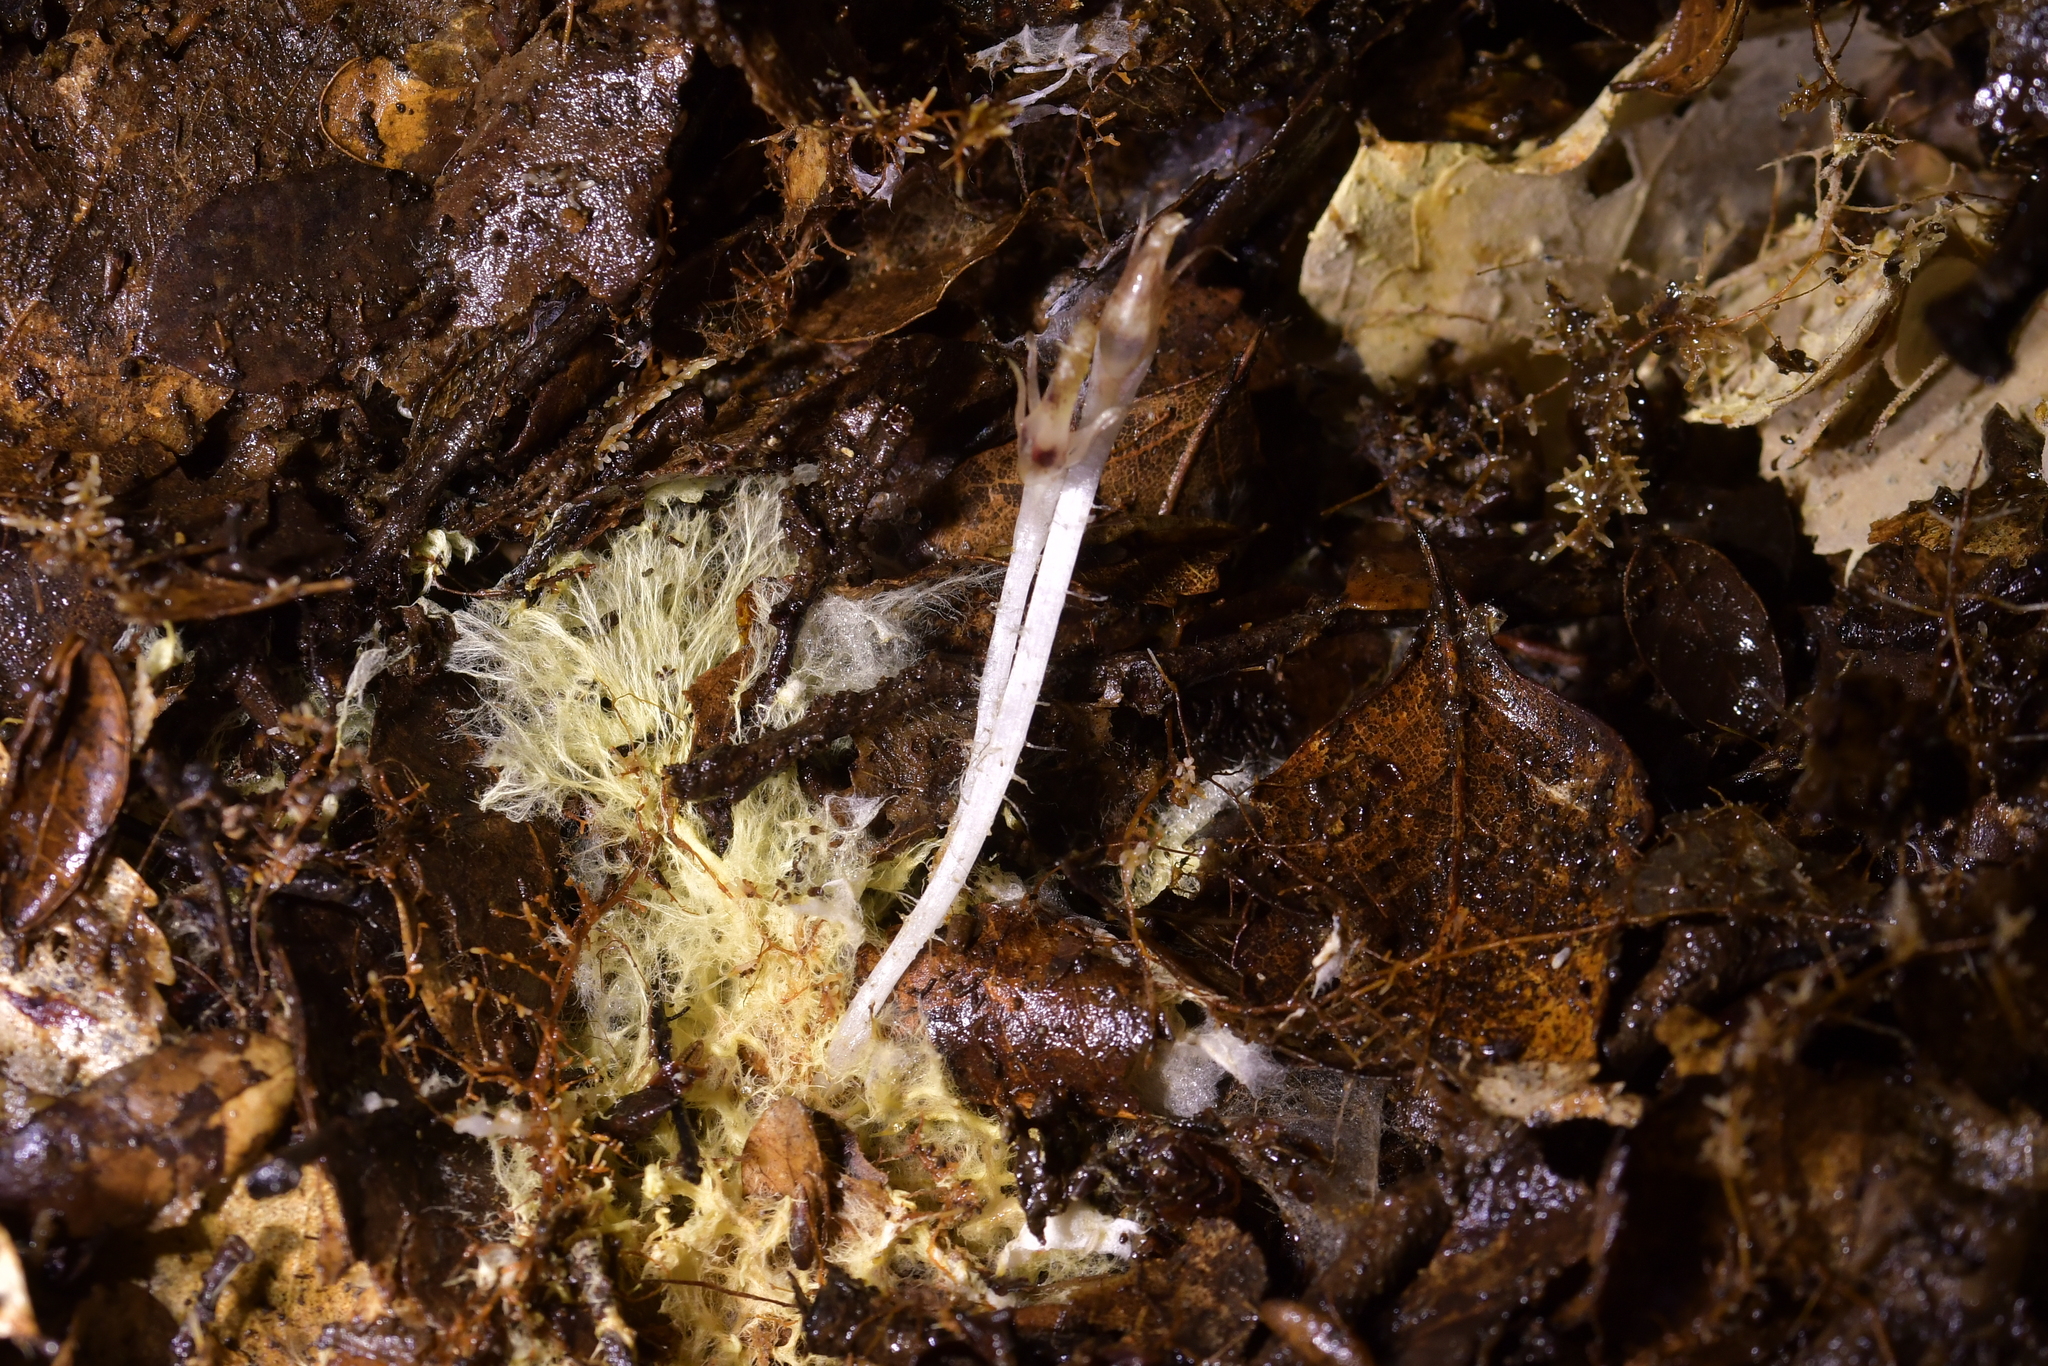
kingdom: Plantae
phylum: Tracheophyta
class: Liliopsida
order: Asparagales
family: Orchidaceae
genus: Corybas
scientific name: Corybas cryptanthus
